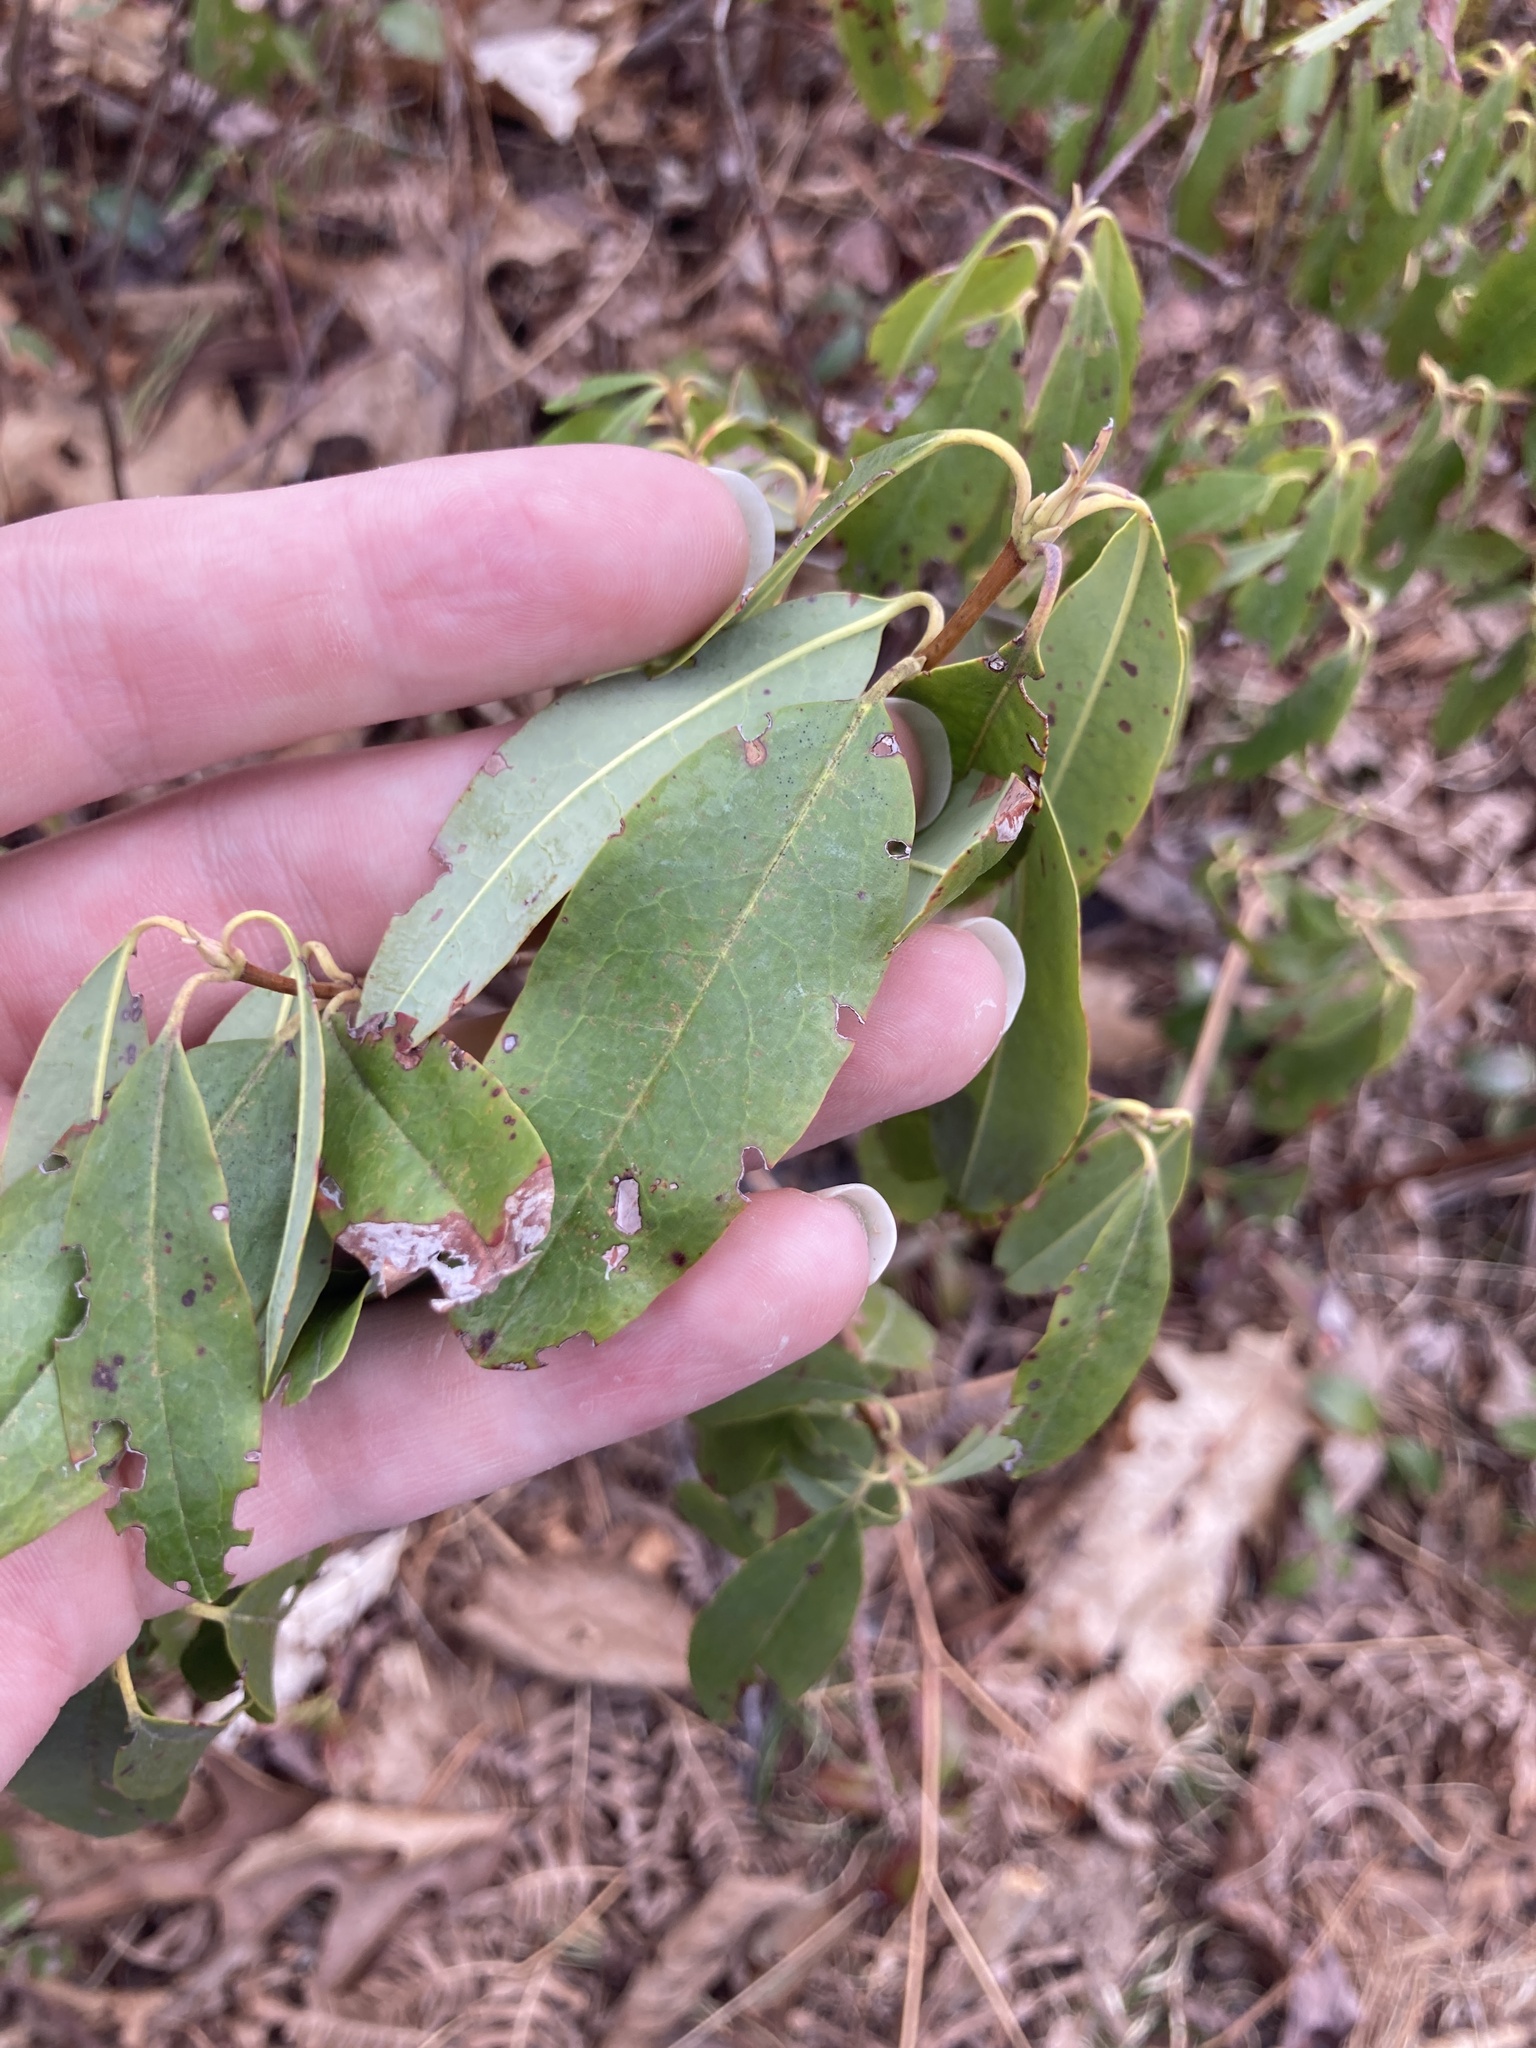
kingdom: Plantae
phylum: Tracheophyta
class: Magnoliopsida
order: Ericales
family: Ericaceae
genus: Kalmia
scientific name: Kalmia angustifolia
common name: Sheep-laurel
